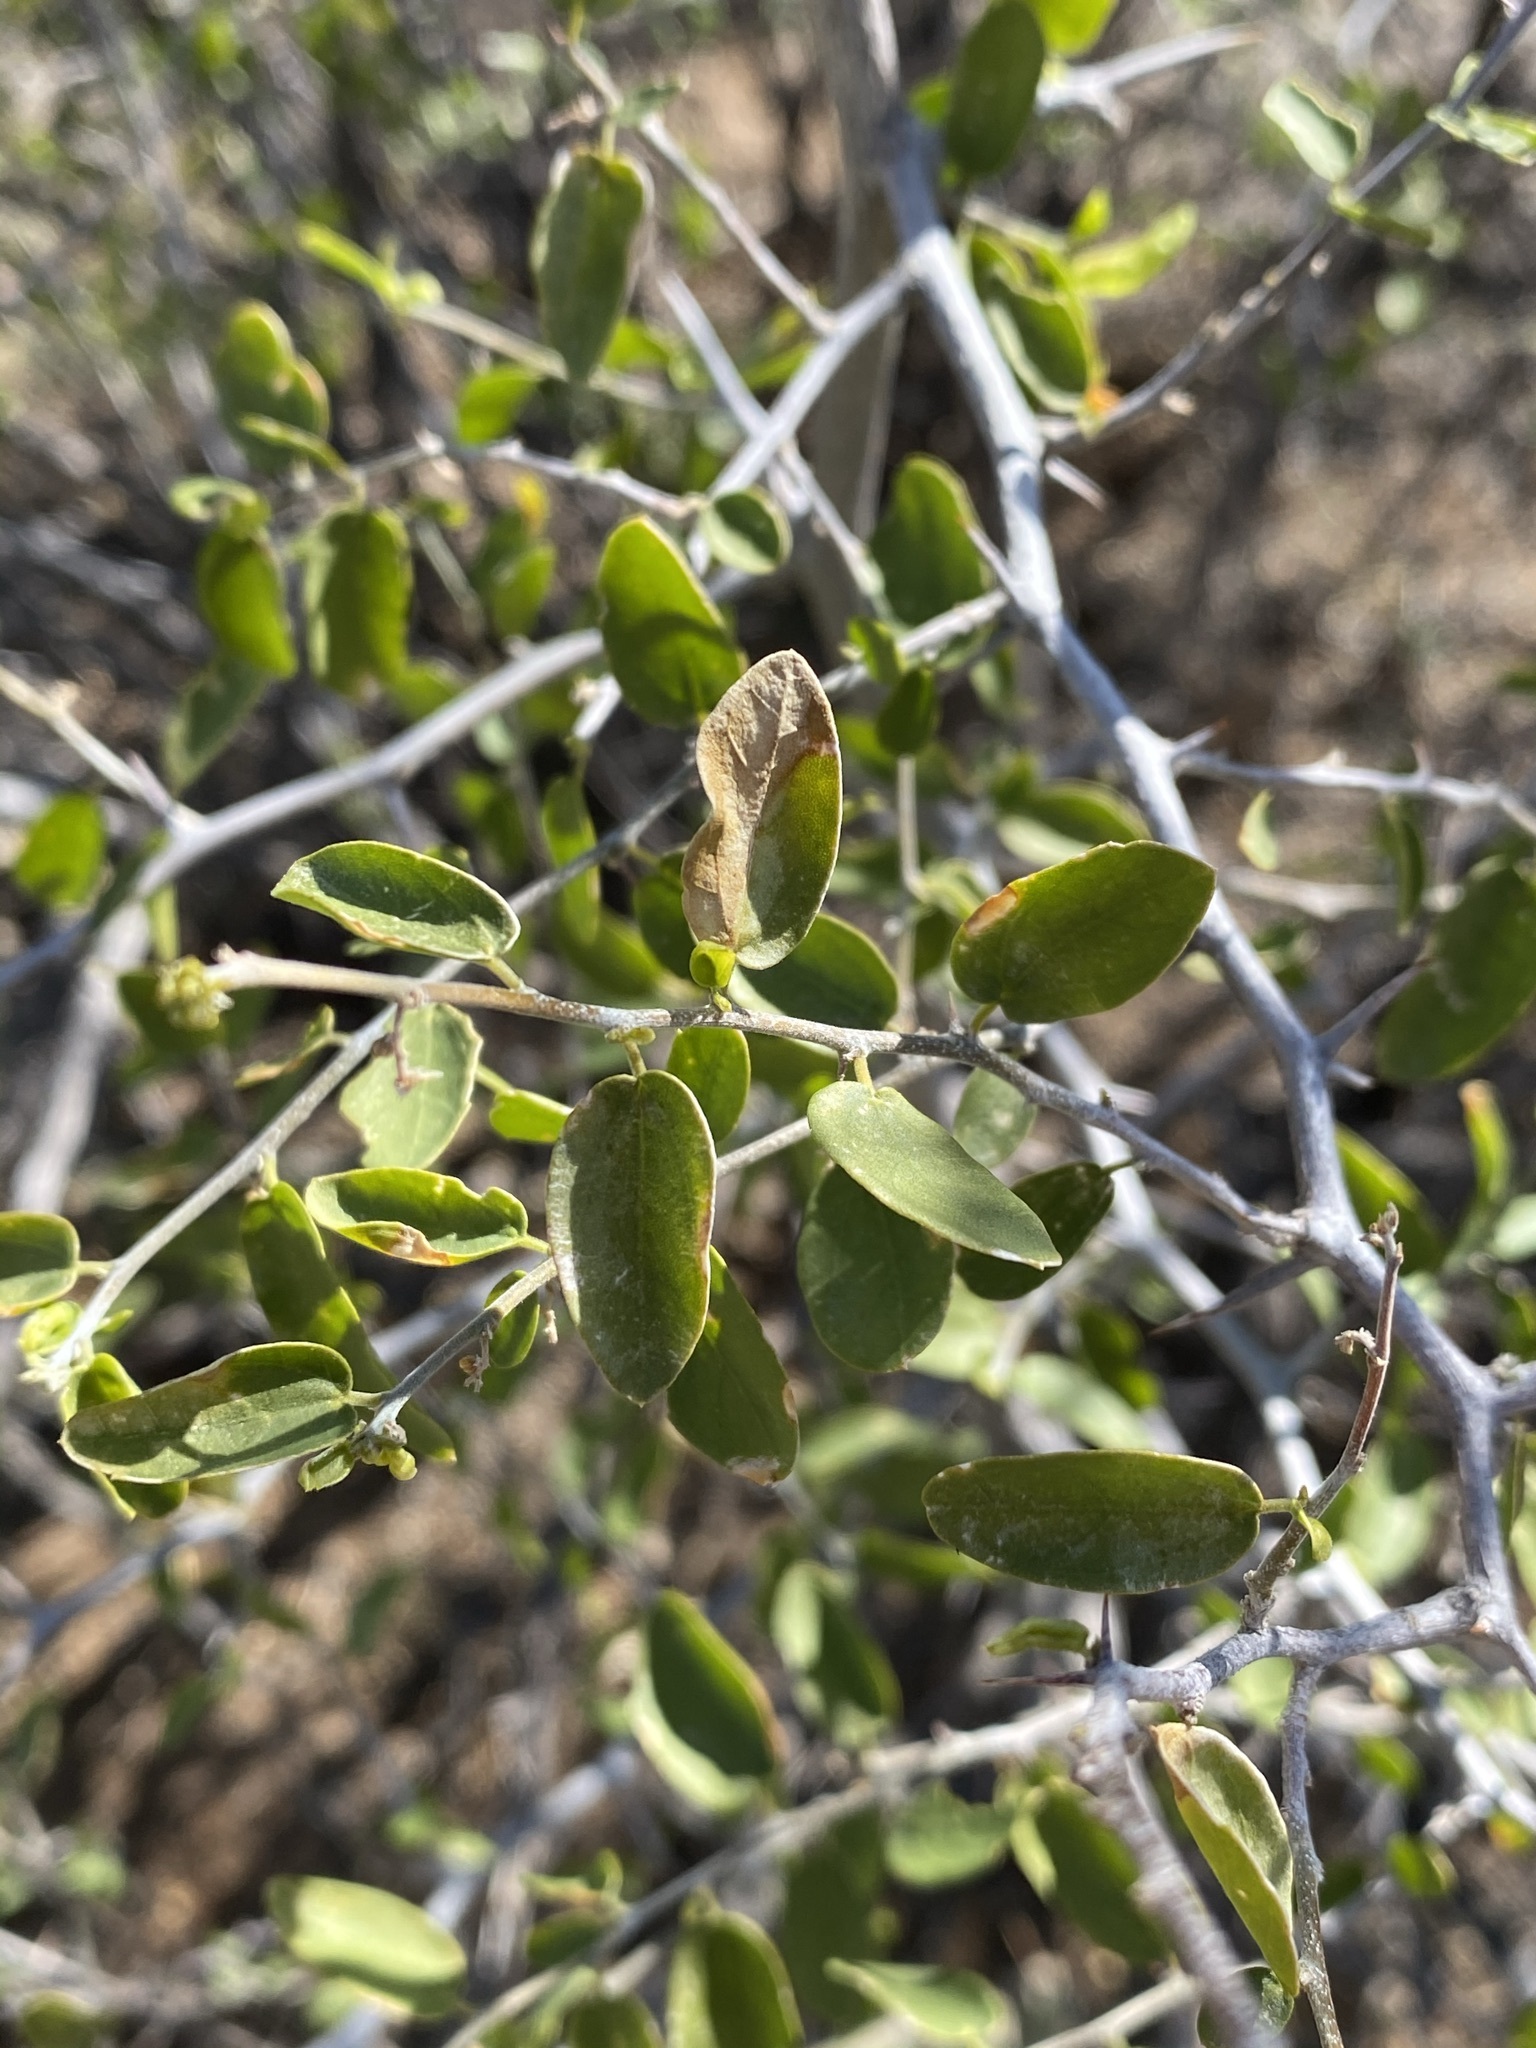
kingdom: Plantae
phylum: Tracheophyta
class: Magnoliopsida
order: Rosales
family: Cannabaceae
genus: Celtis
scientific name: Celtis pallida
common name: Desert hackberry
